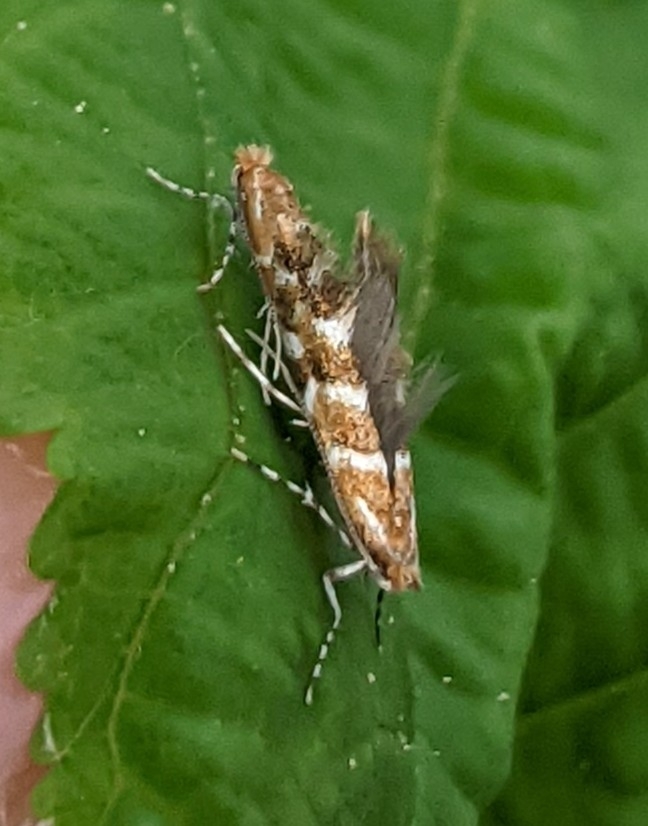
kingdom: Animalia
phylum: Arthropoda
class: Insecta
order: Lepidoptera
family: Gracillariidae
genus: Cameraria
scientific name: Cameraria ohridella
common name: Horse-chestnut leaf-miner
